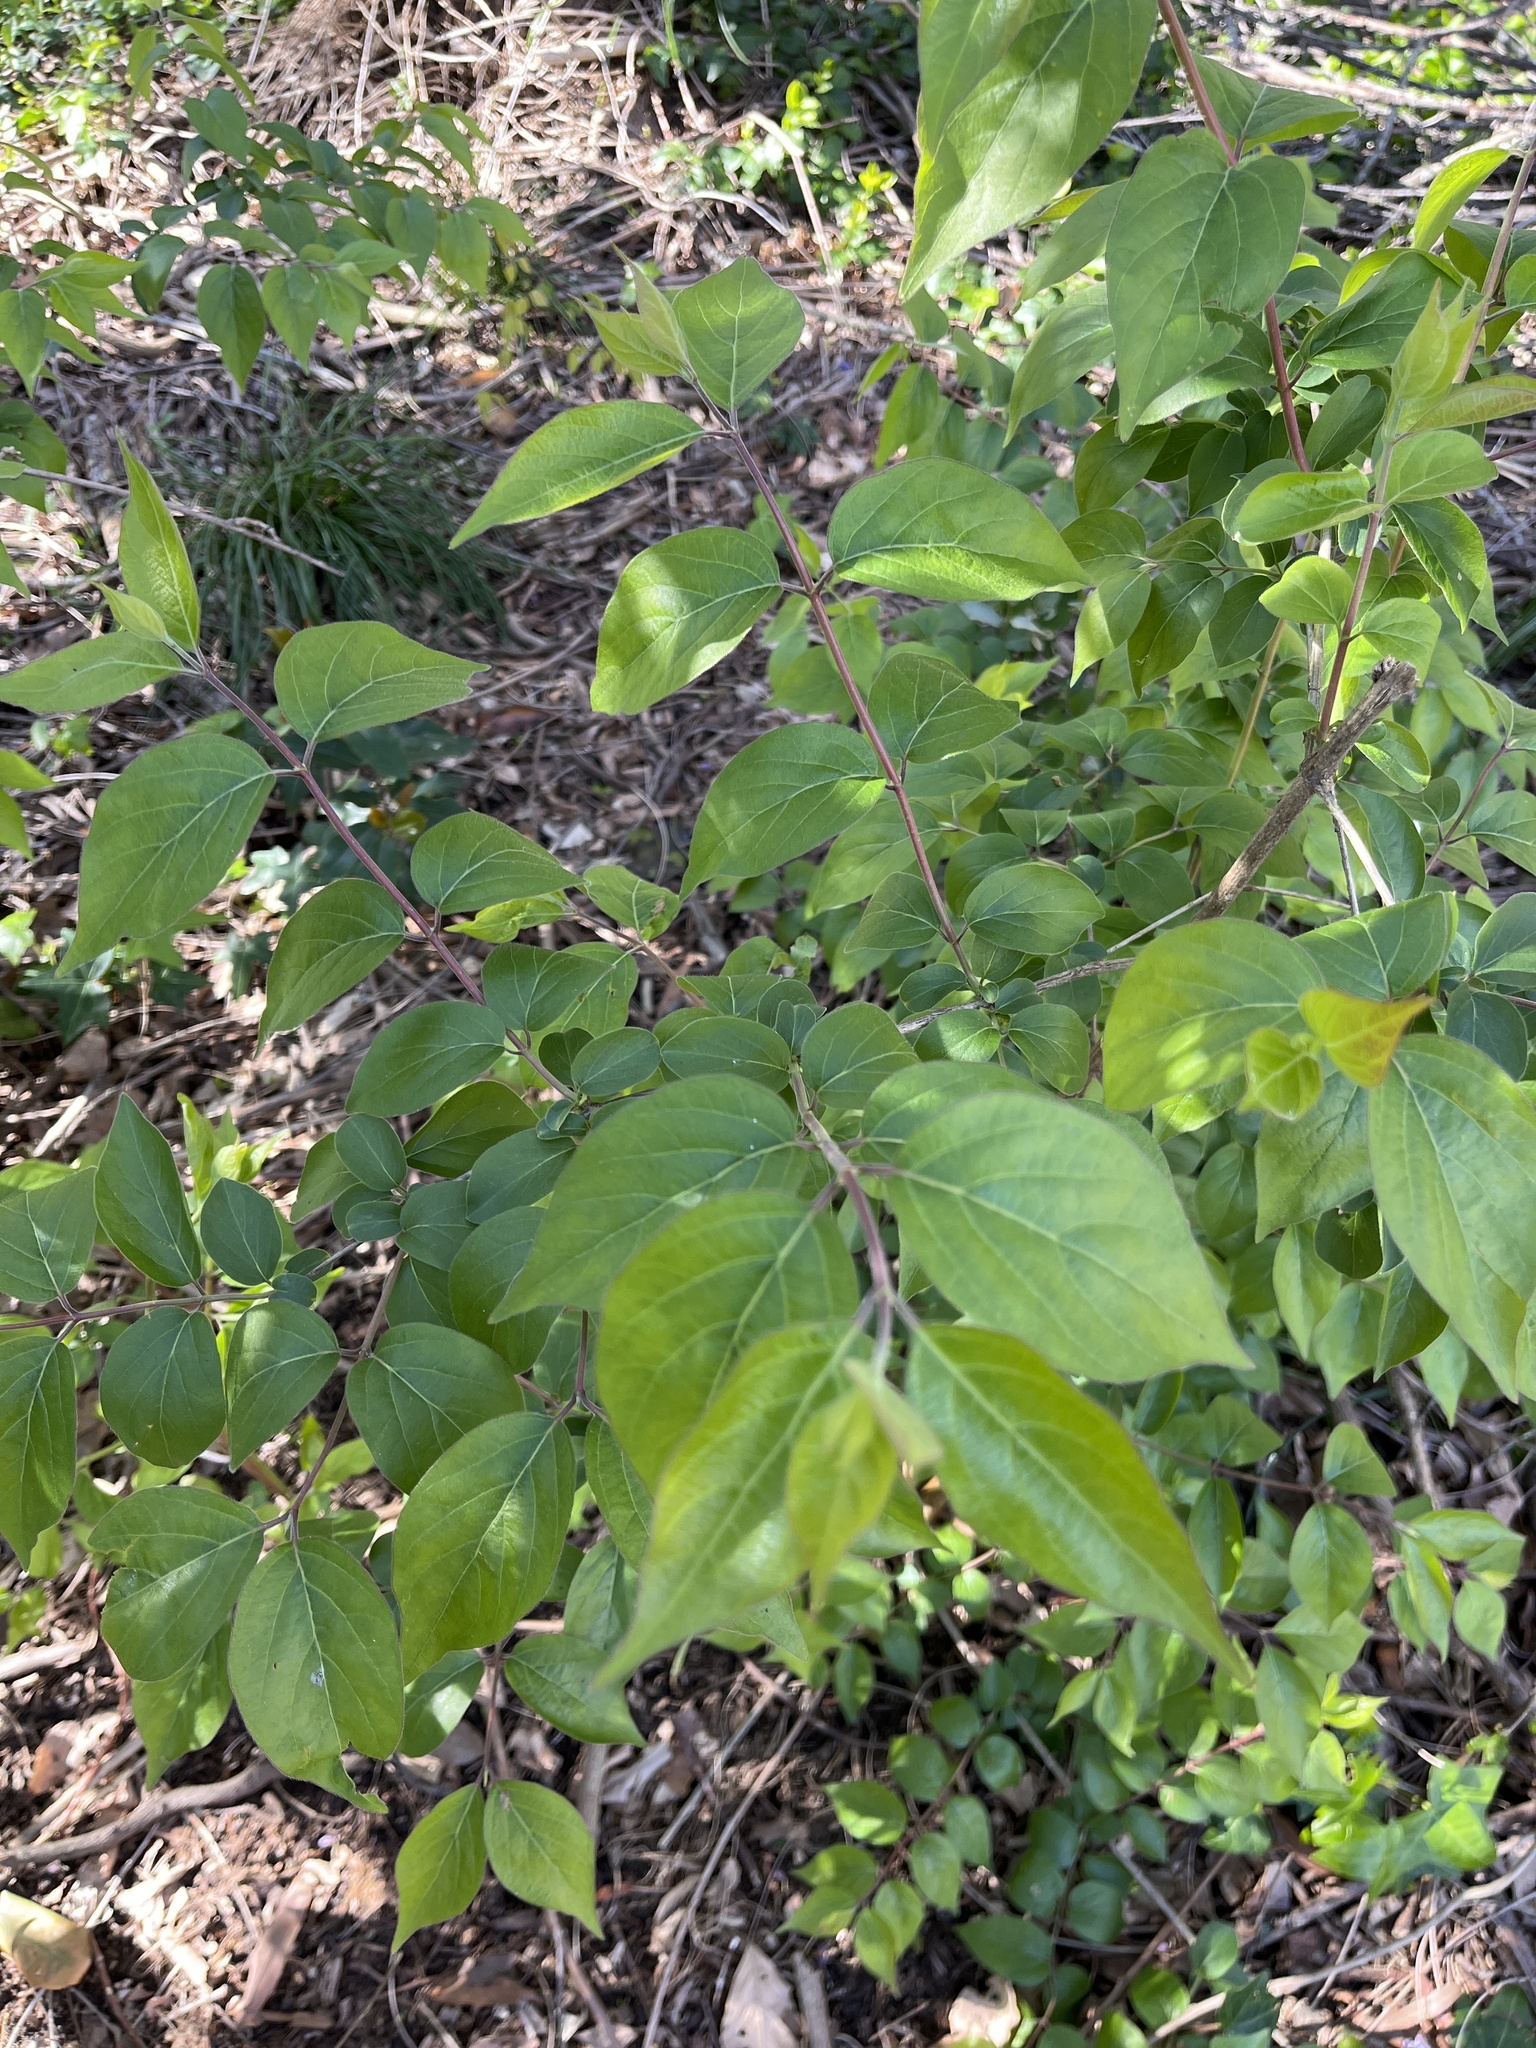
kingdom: Plantae
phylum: Tracheophyta
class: Magnoliopsida
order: Dipsacales
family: Caprifoliaceae
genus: Lonicera
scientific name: Lonicera maackii
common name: Amur honeysuckle
